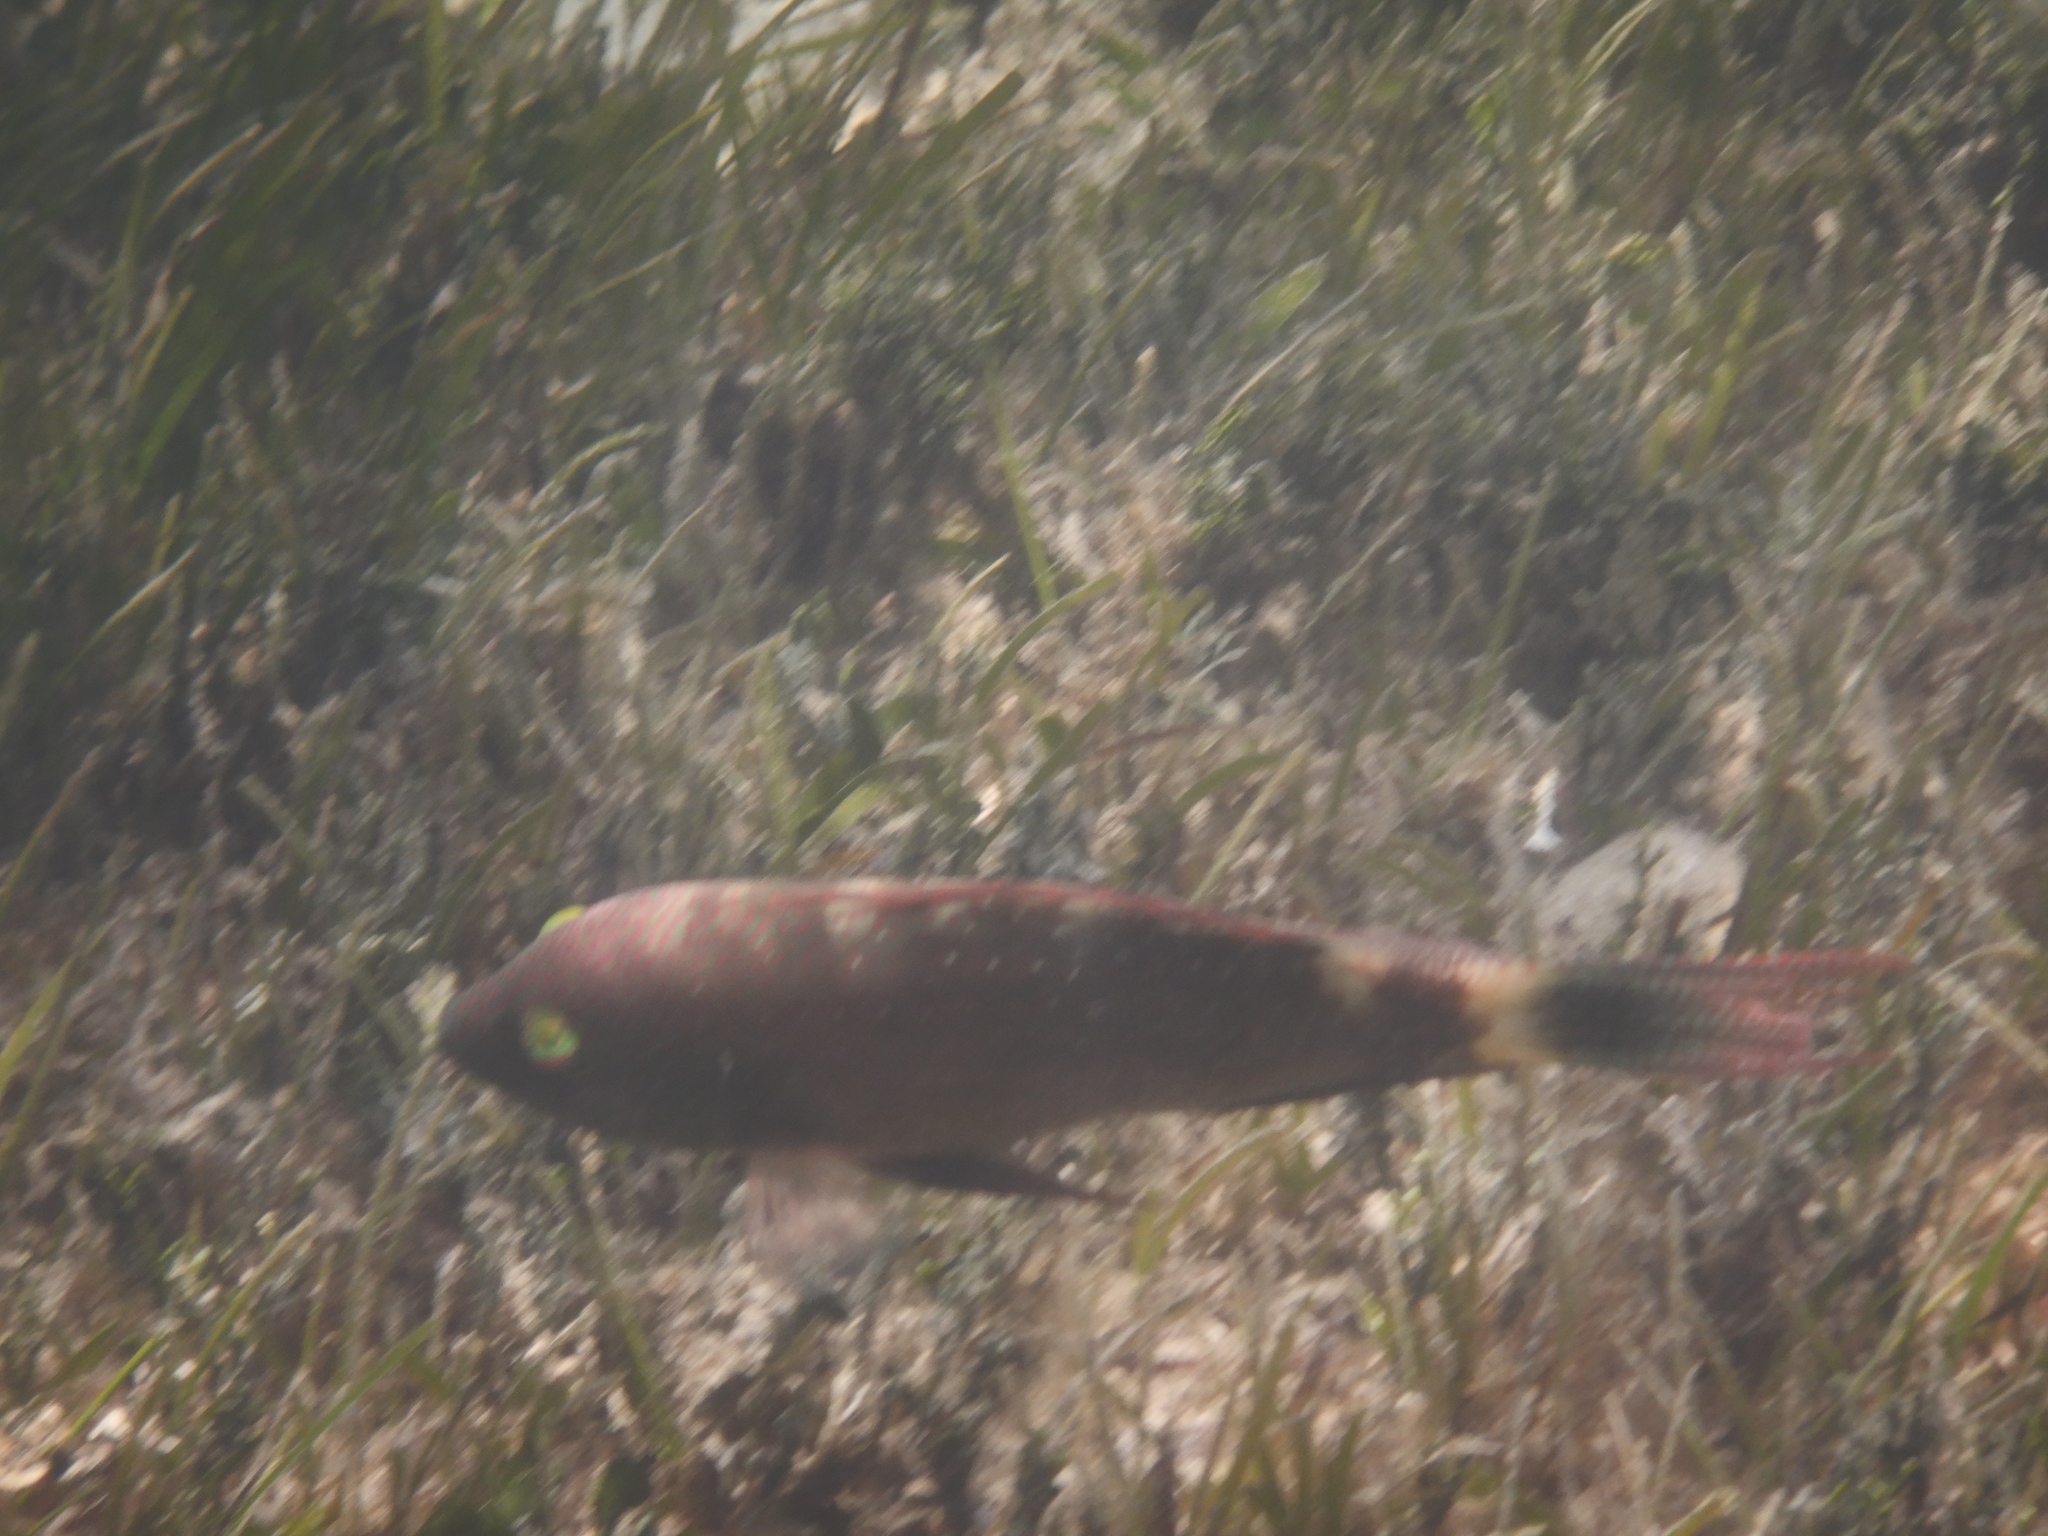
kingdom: Animalia
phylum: Chordata
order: Perciformes
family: Labridae
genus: Cheilinus
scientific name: Cheilinus trilobatus
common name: Tripletail maori wrasse
